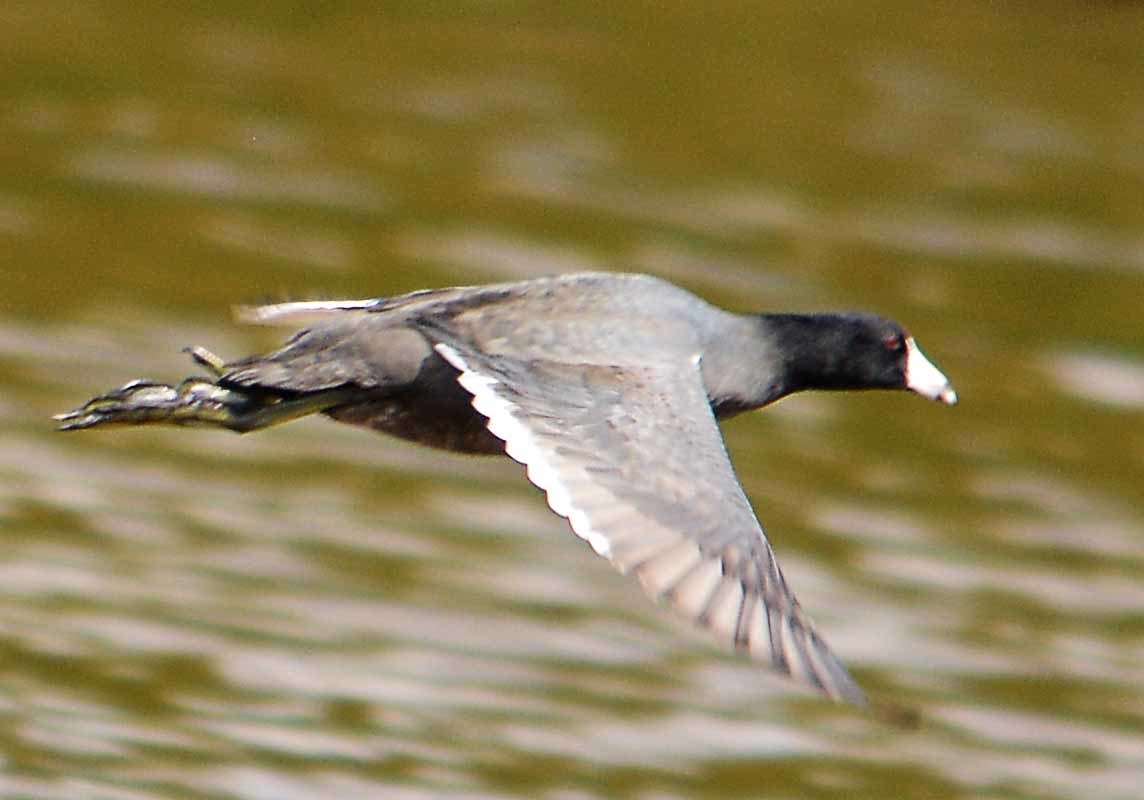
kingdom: Animalia
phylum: Chordata
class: Aves
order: Gruiformes
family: Rallidae
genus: Fulica
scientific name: Fulica americana
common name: American coot
